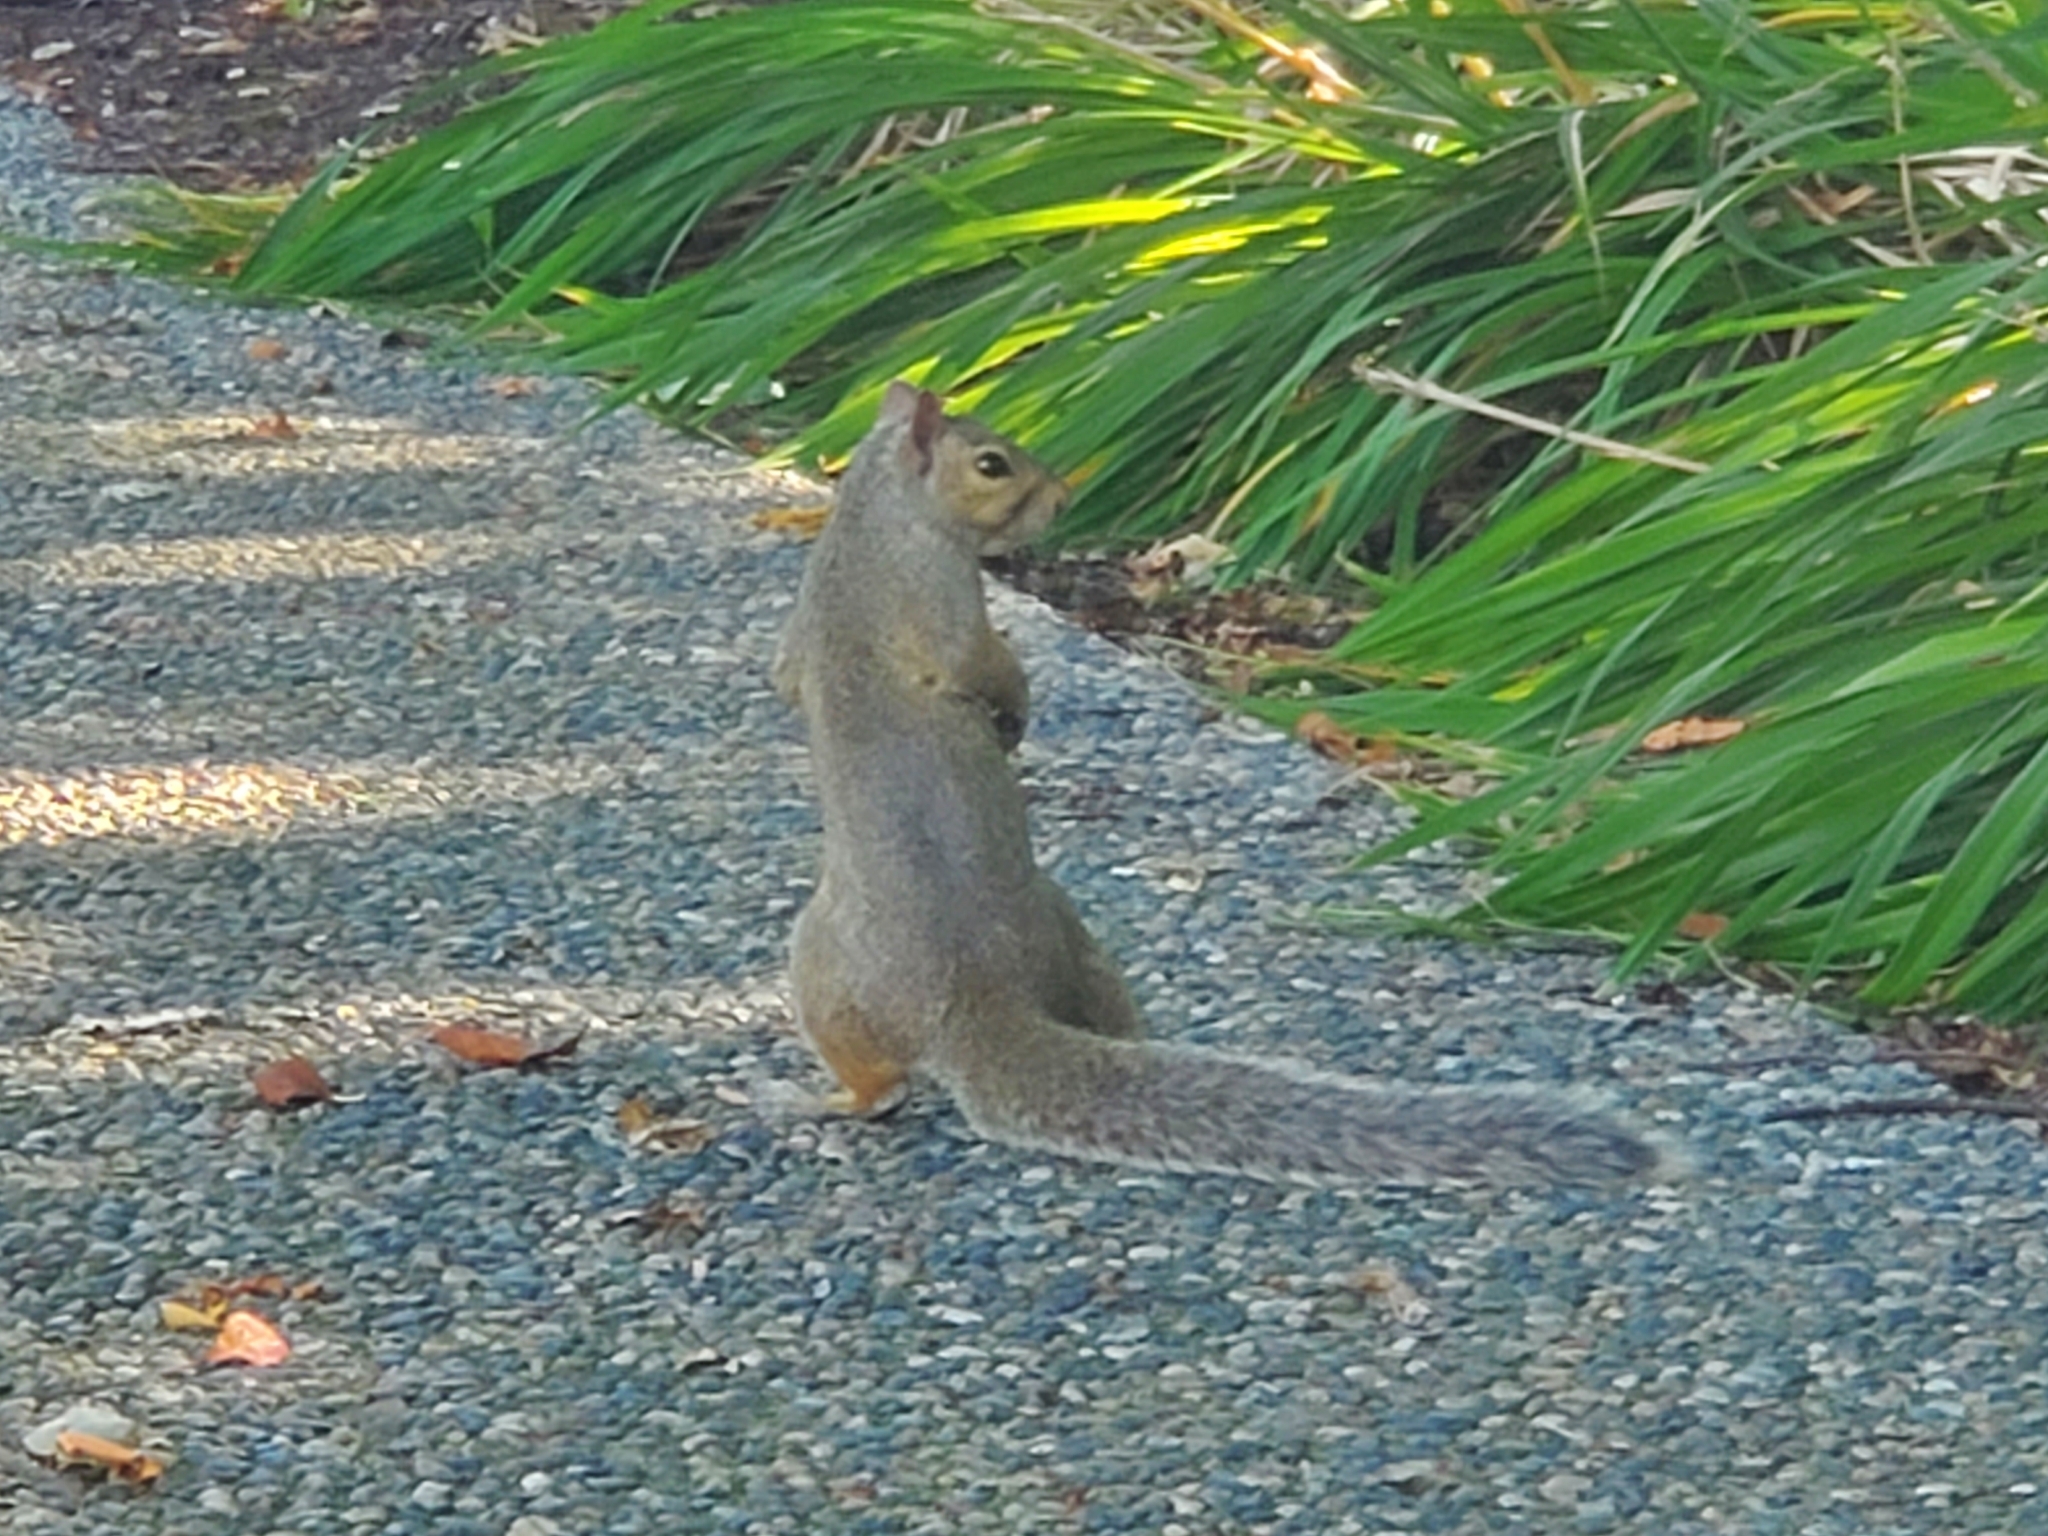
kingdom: Animalia
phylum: Chordata
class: Mammalia
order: Rodentia
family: Sciuridae
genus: Sciurus
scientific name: Sciurus carolinensis
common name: Eastern gray squirrel
